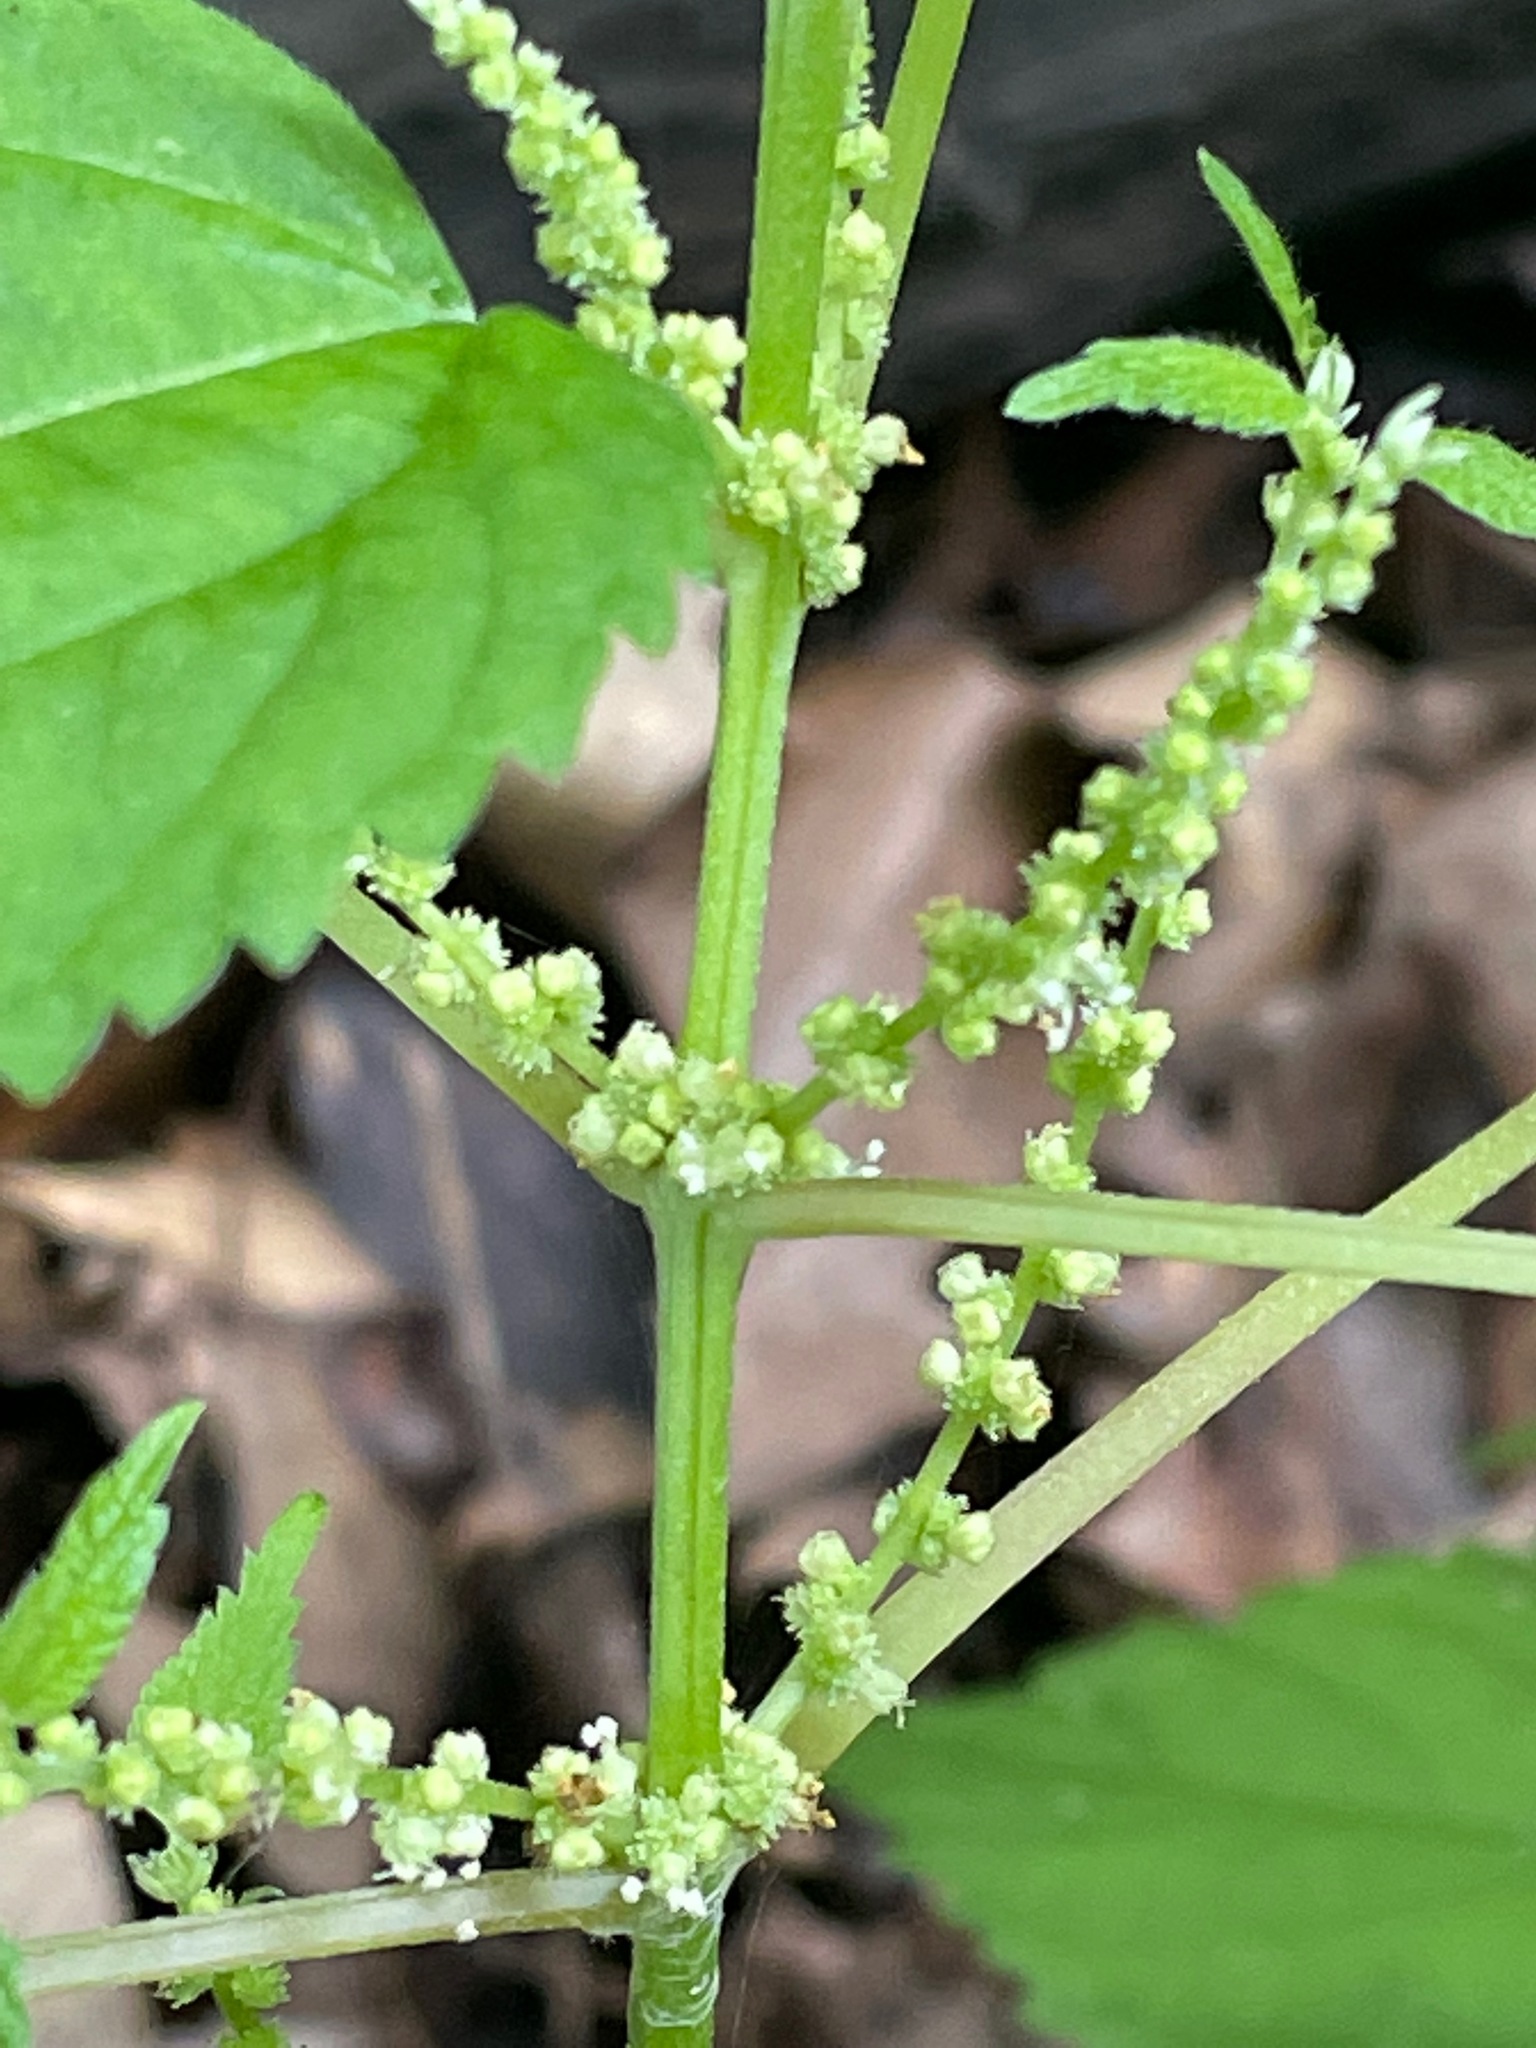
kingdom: Plantae
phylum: Tracheophyta
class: Magnoliopsida
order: Rosales
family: Urticaceae
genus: Boehmeria
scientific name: Boehmeria cylindrica
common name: Bog-hemp
